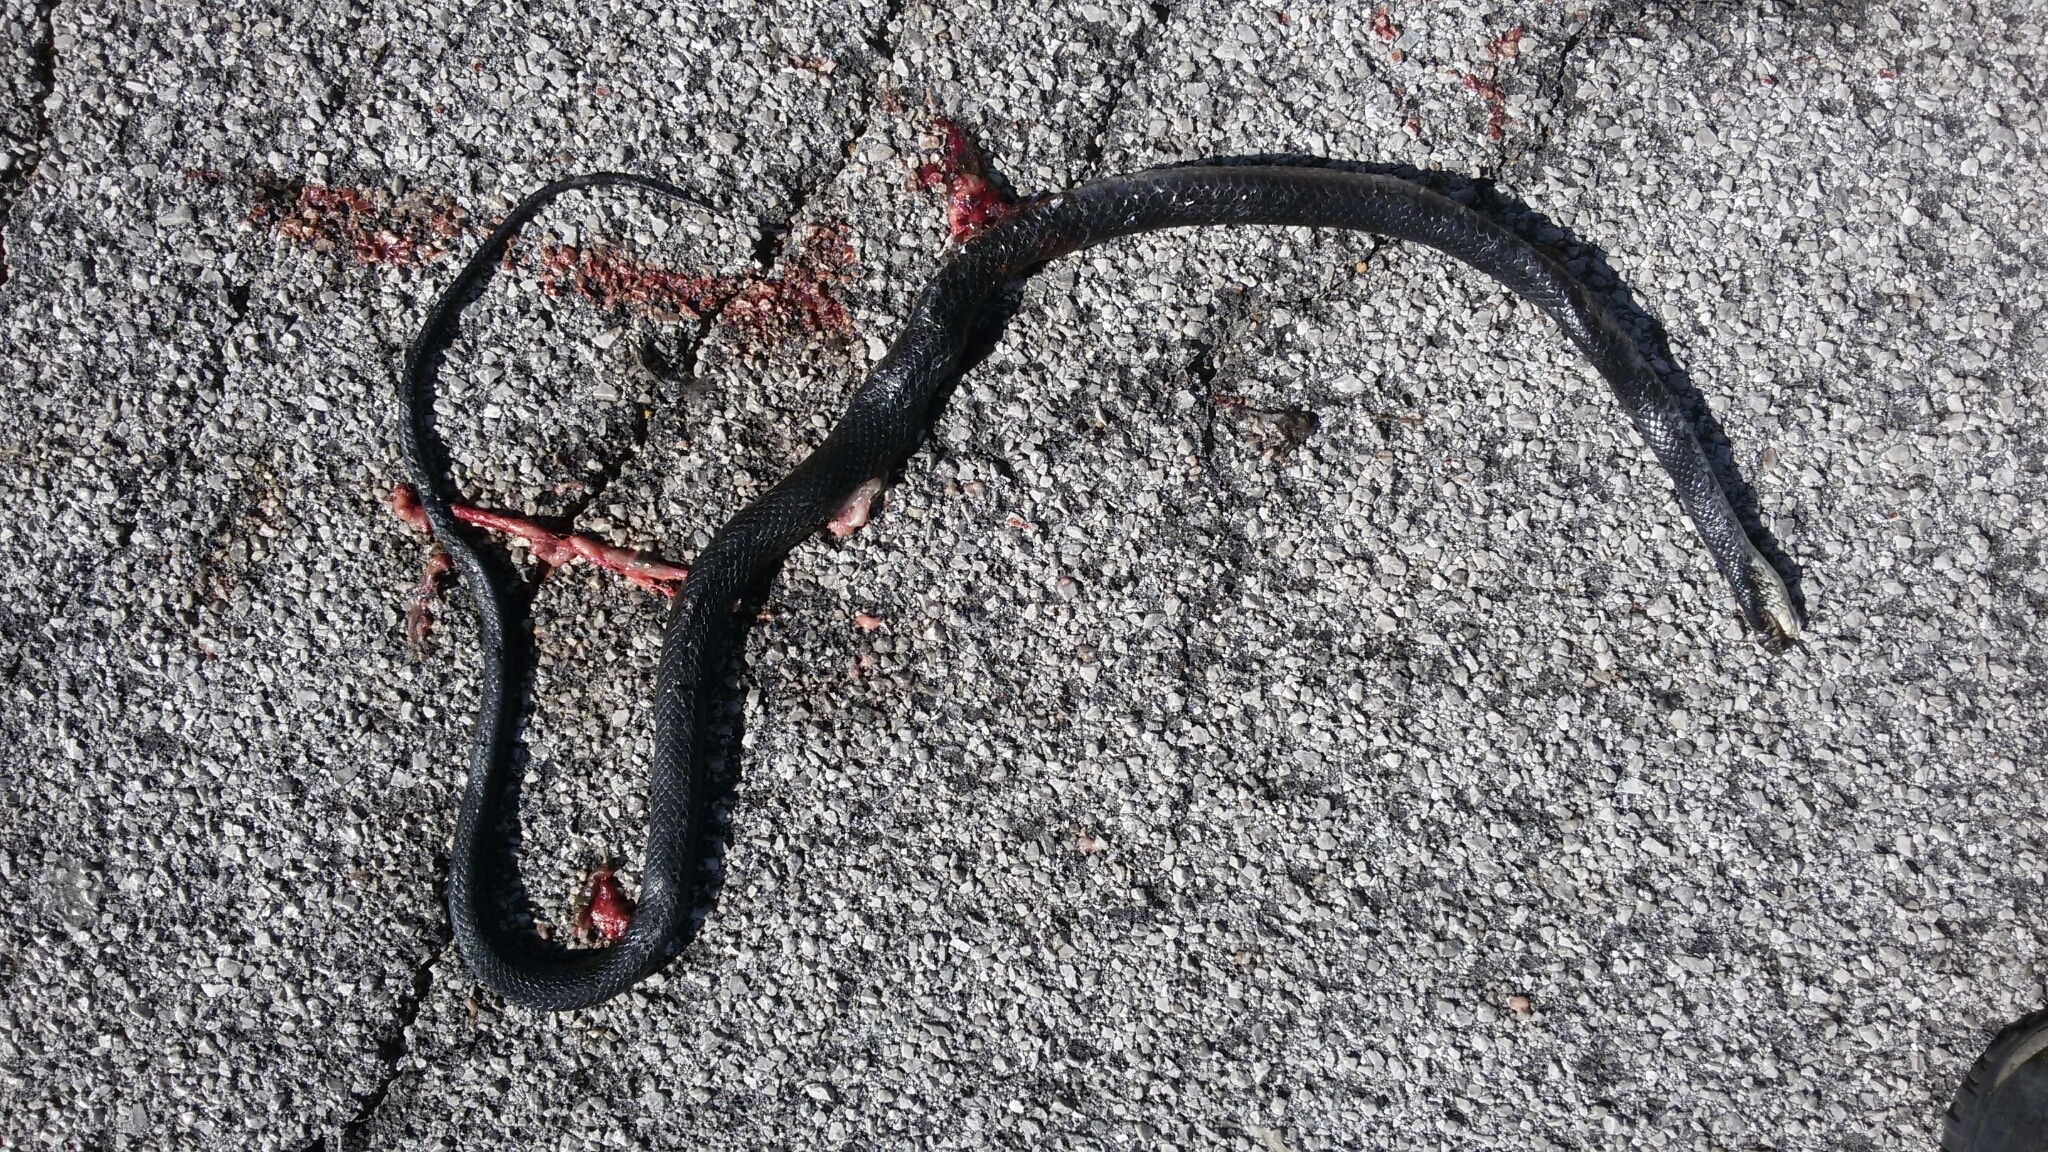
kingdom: Animalia
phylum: Chordata
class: Squamata
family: Colubridae
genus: Hierophis
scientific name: Hierophis viridiflavus
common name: Green whip snake
